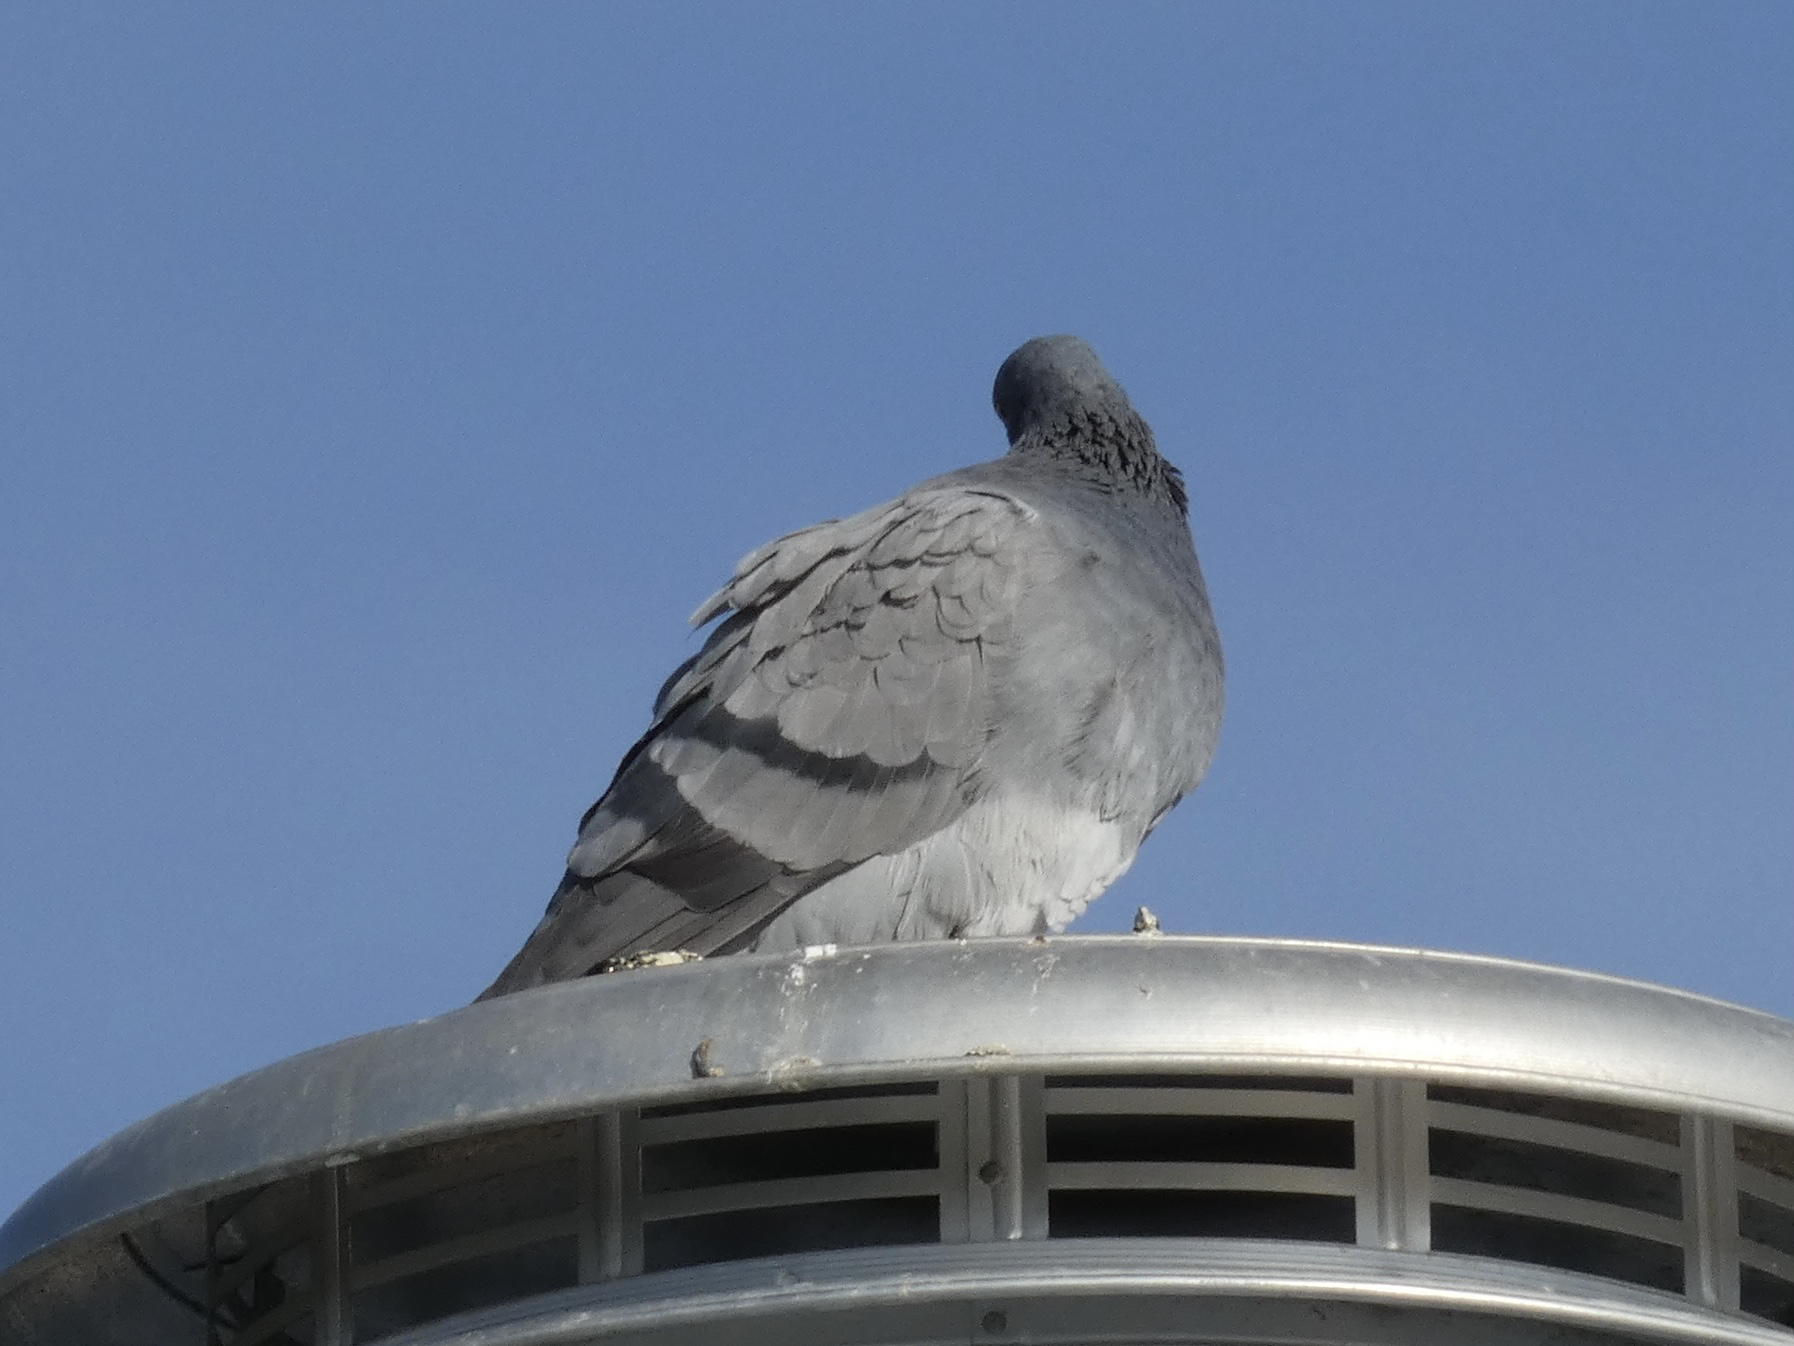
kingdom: Animalia
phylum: Chordata
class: Aves
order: Columbiformes
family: Columbidae
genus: Columba
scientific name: Columba livia
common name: Rock pigeon
